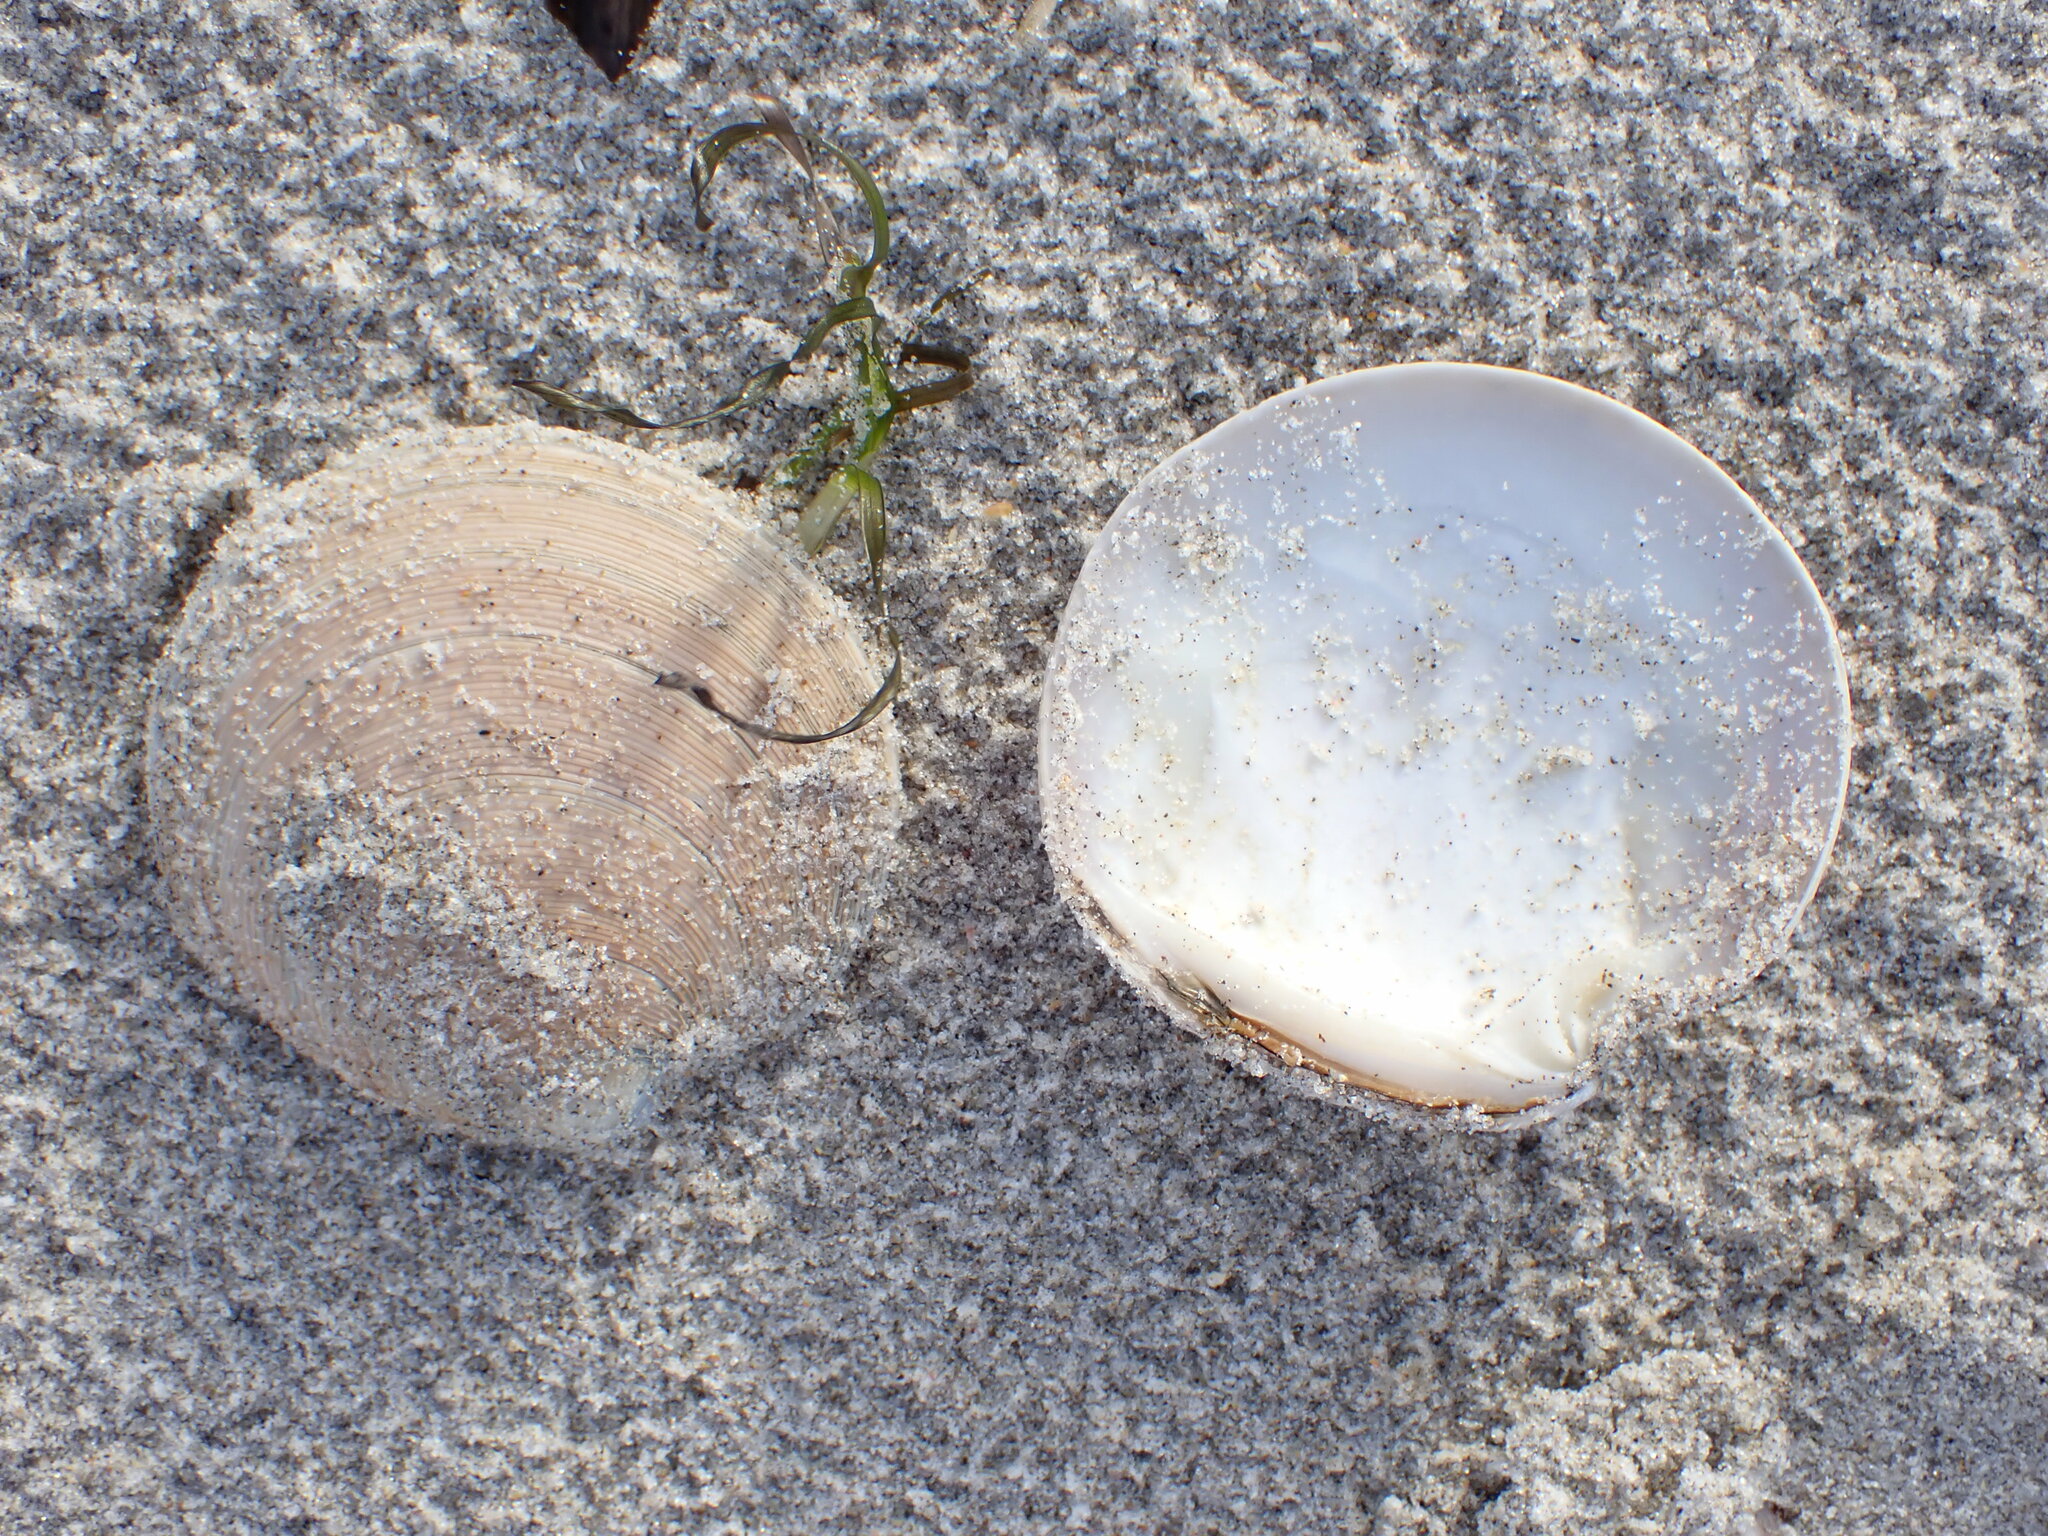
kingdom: Animalia
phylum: Mollusca
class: Bivalvia
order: Venerida
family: Veneridae
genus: Dosinia
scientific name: Dosinia anus
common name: Old-woman dosinia
